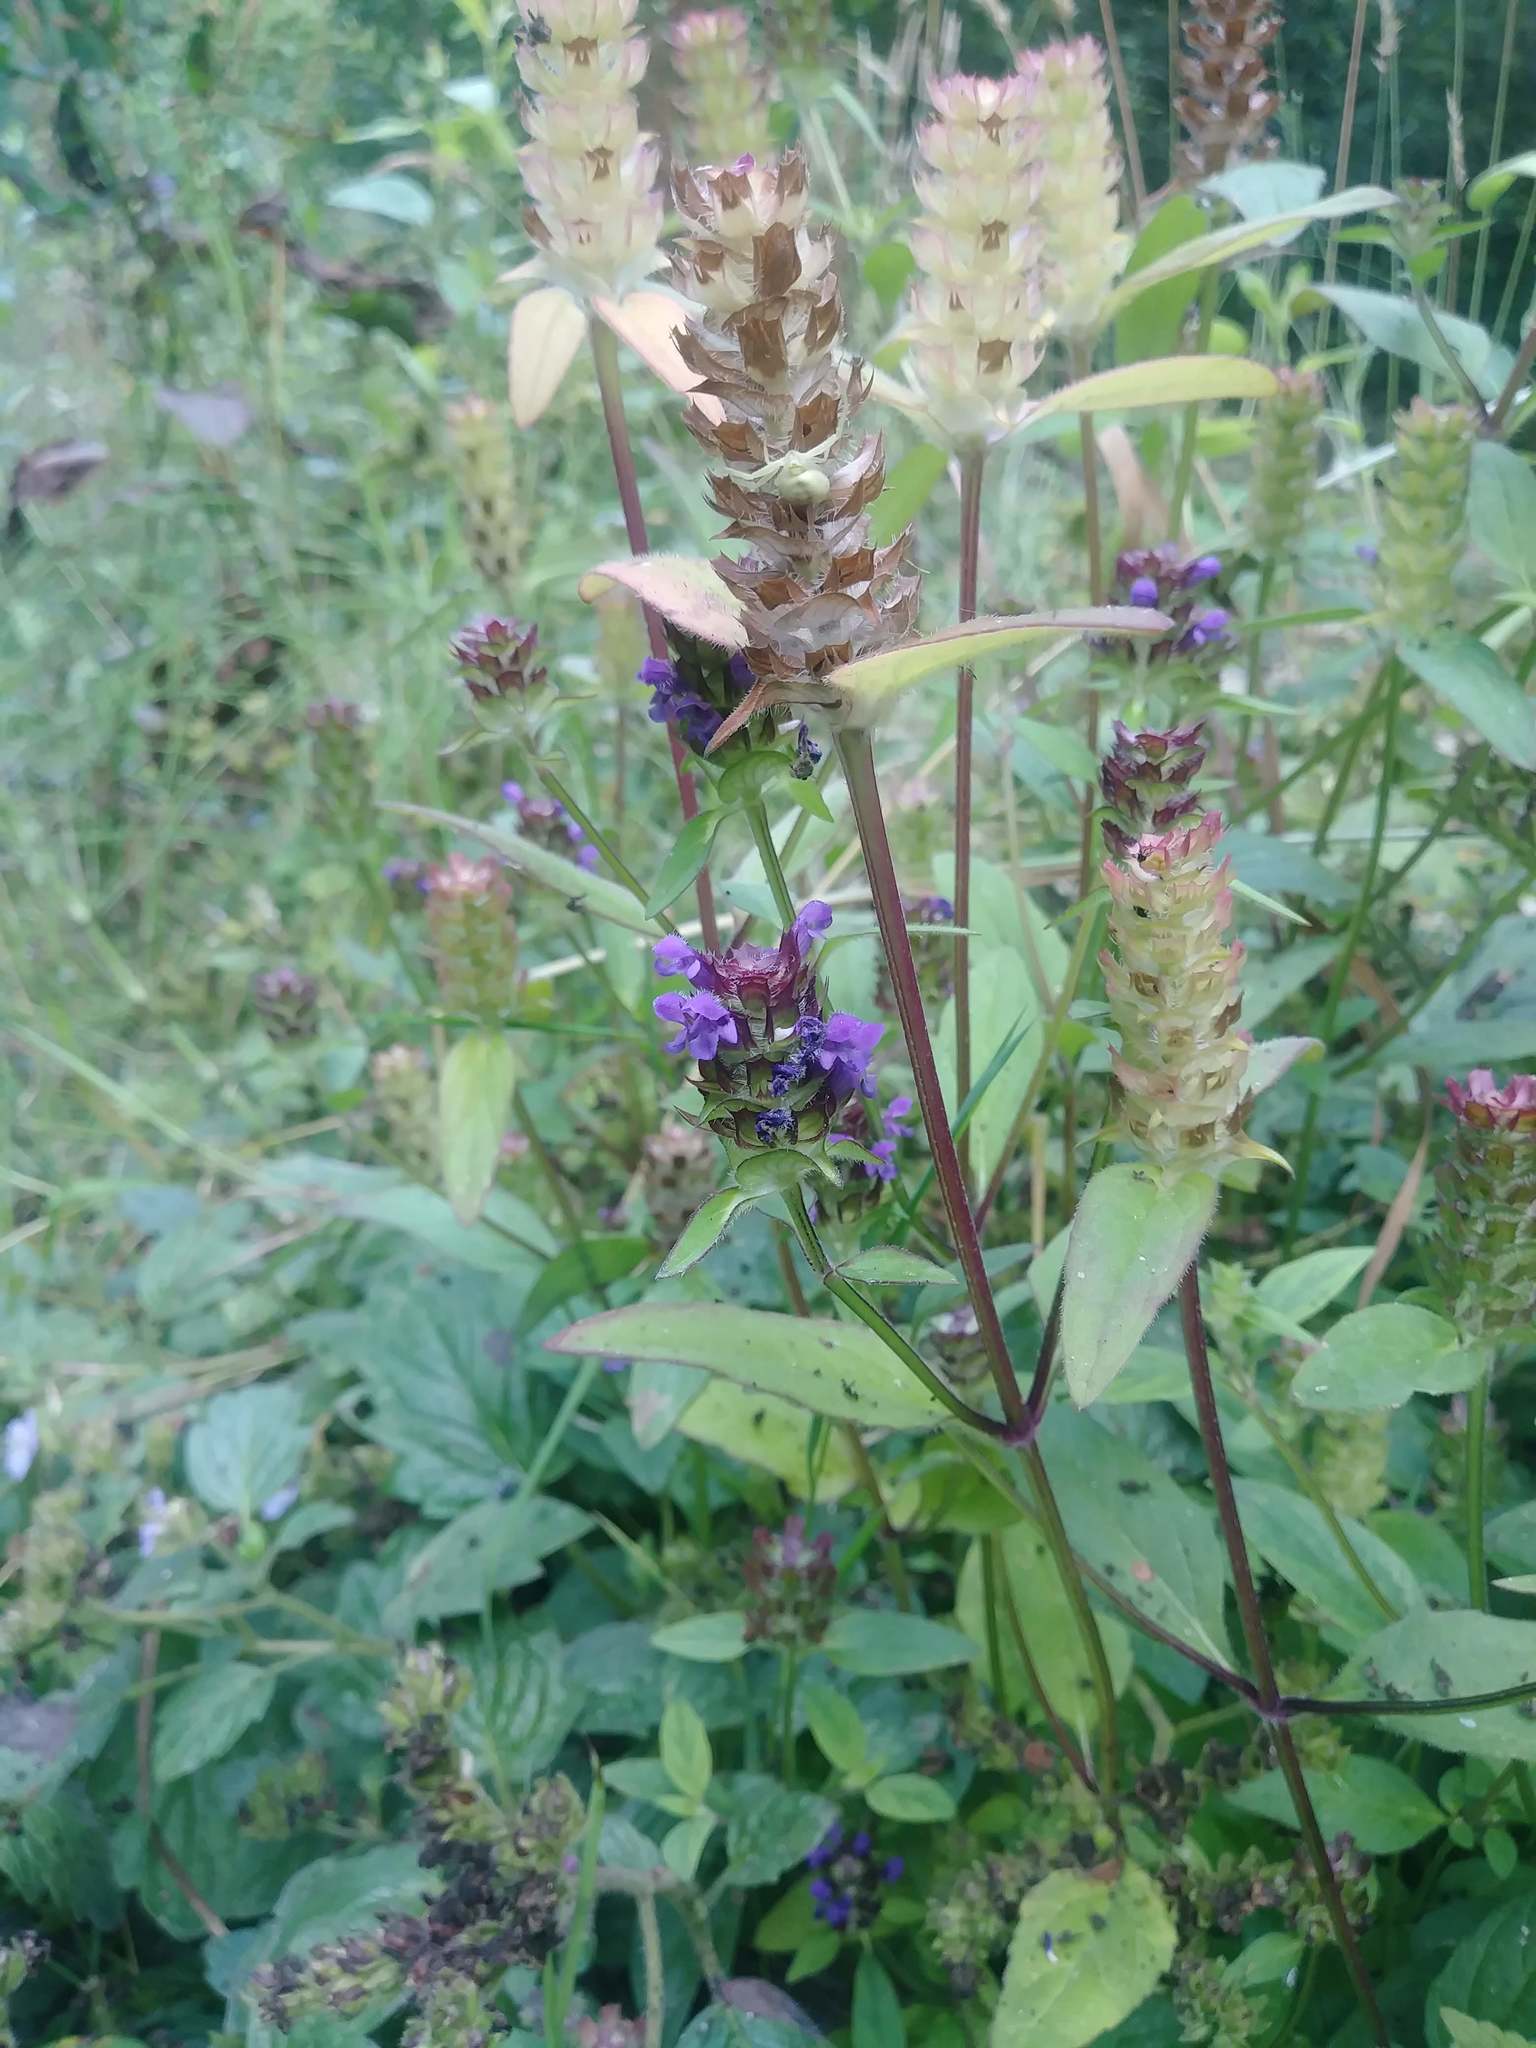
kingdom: Plantae
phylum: Tracheophyta
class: Magnoliopsida
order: Lamiales
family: Lamiaceae
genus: Prunella
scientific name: Prunella vulgaris
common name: Heal-all
